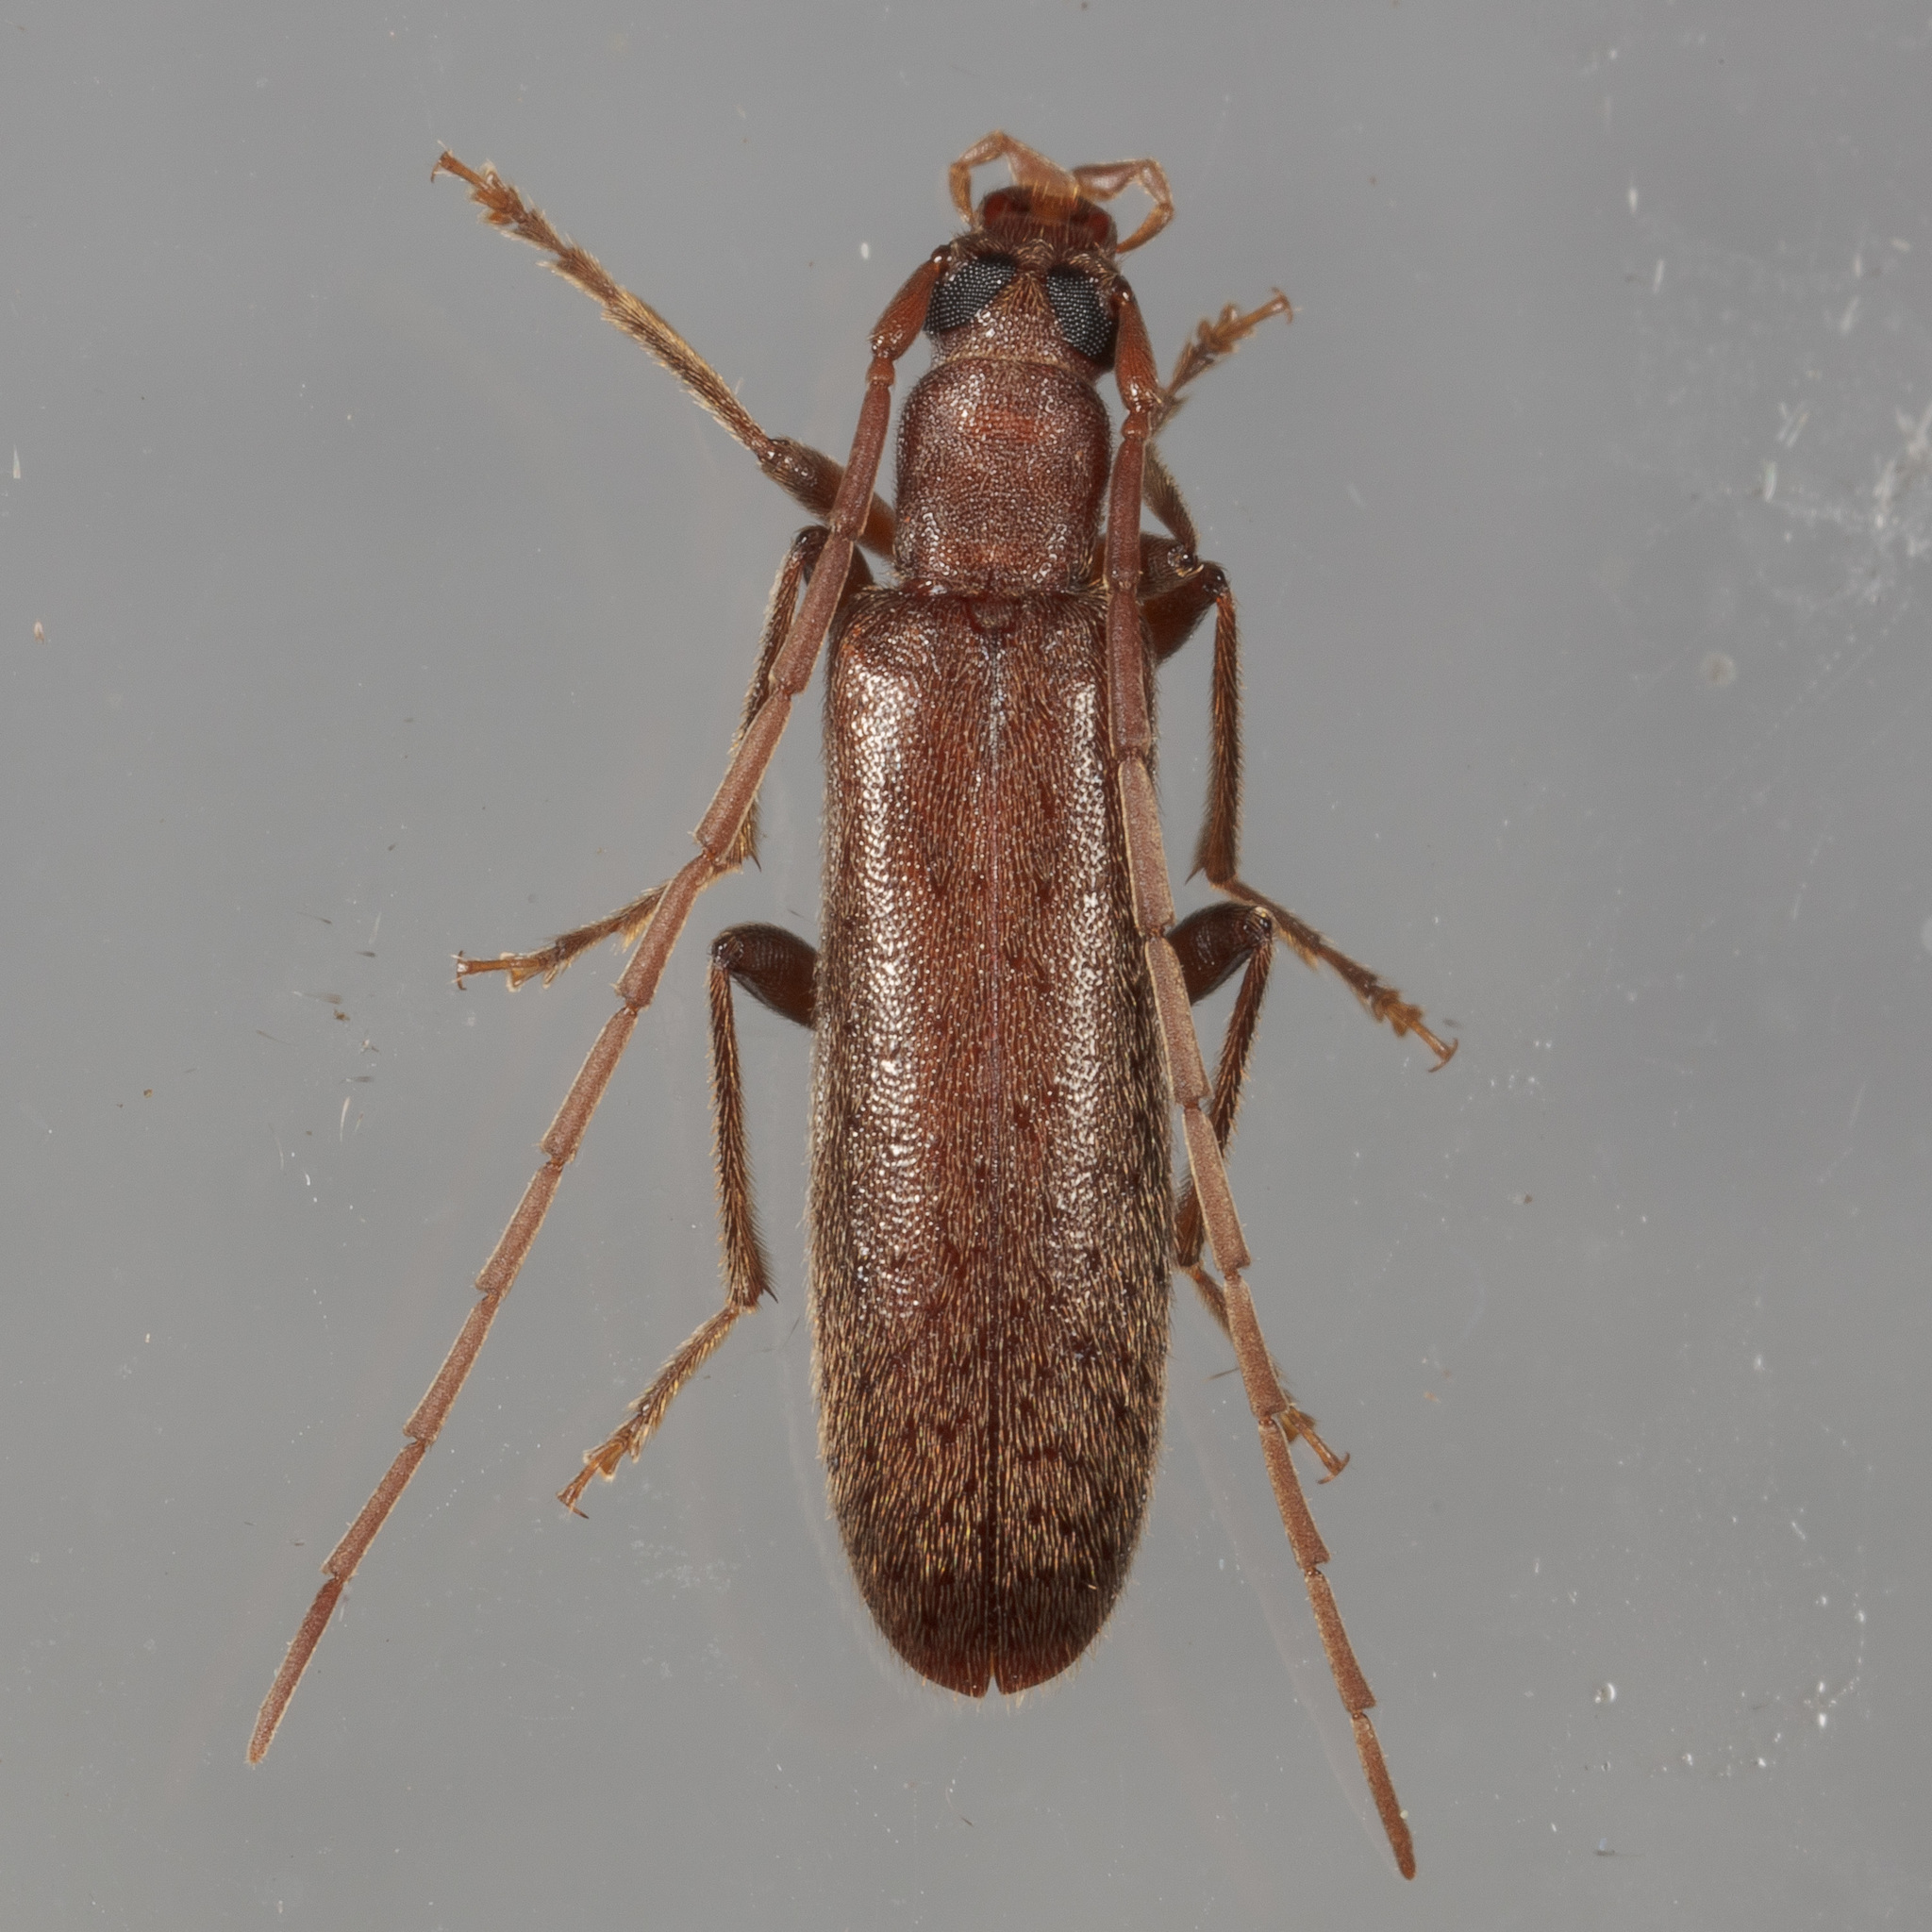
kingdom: Animalia
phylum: Arthropoda
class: Insecta
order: Coleoptera
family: Oedemeridae
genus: Sparedrus
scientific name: Sparedrus aspersus
